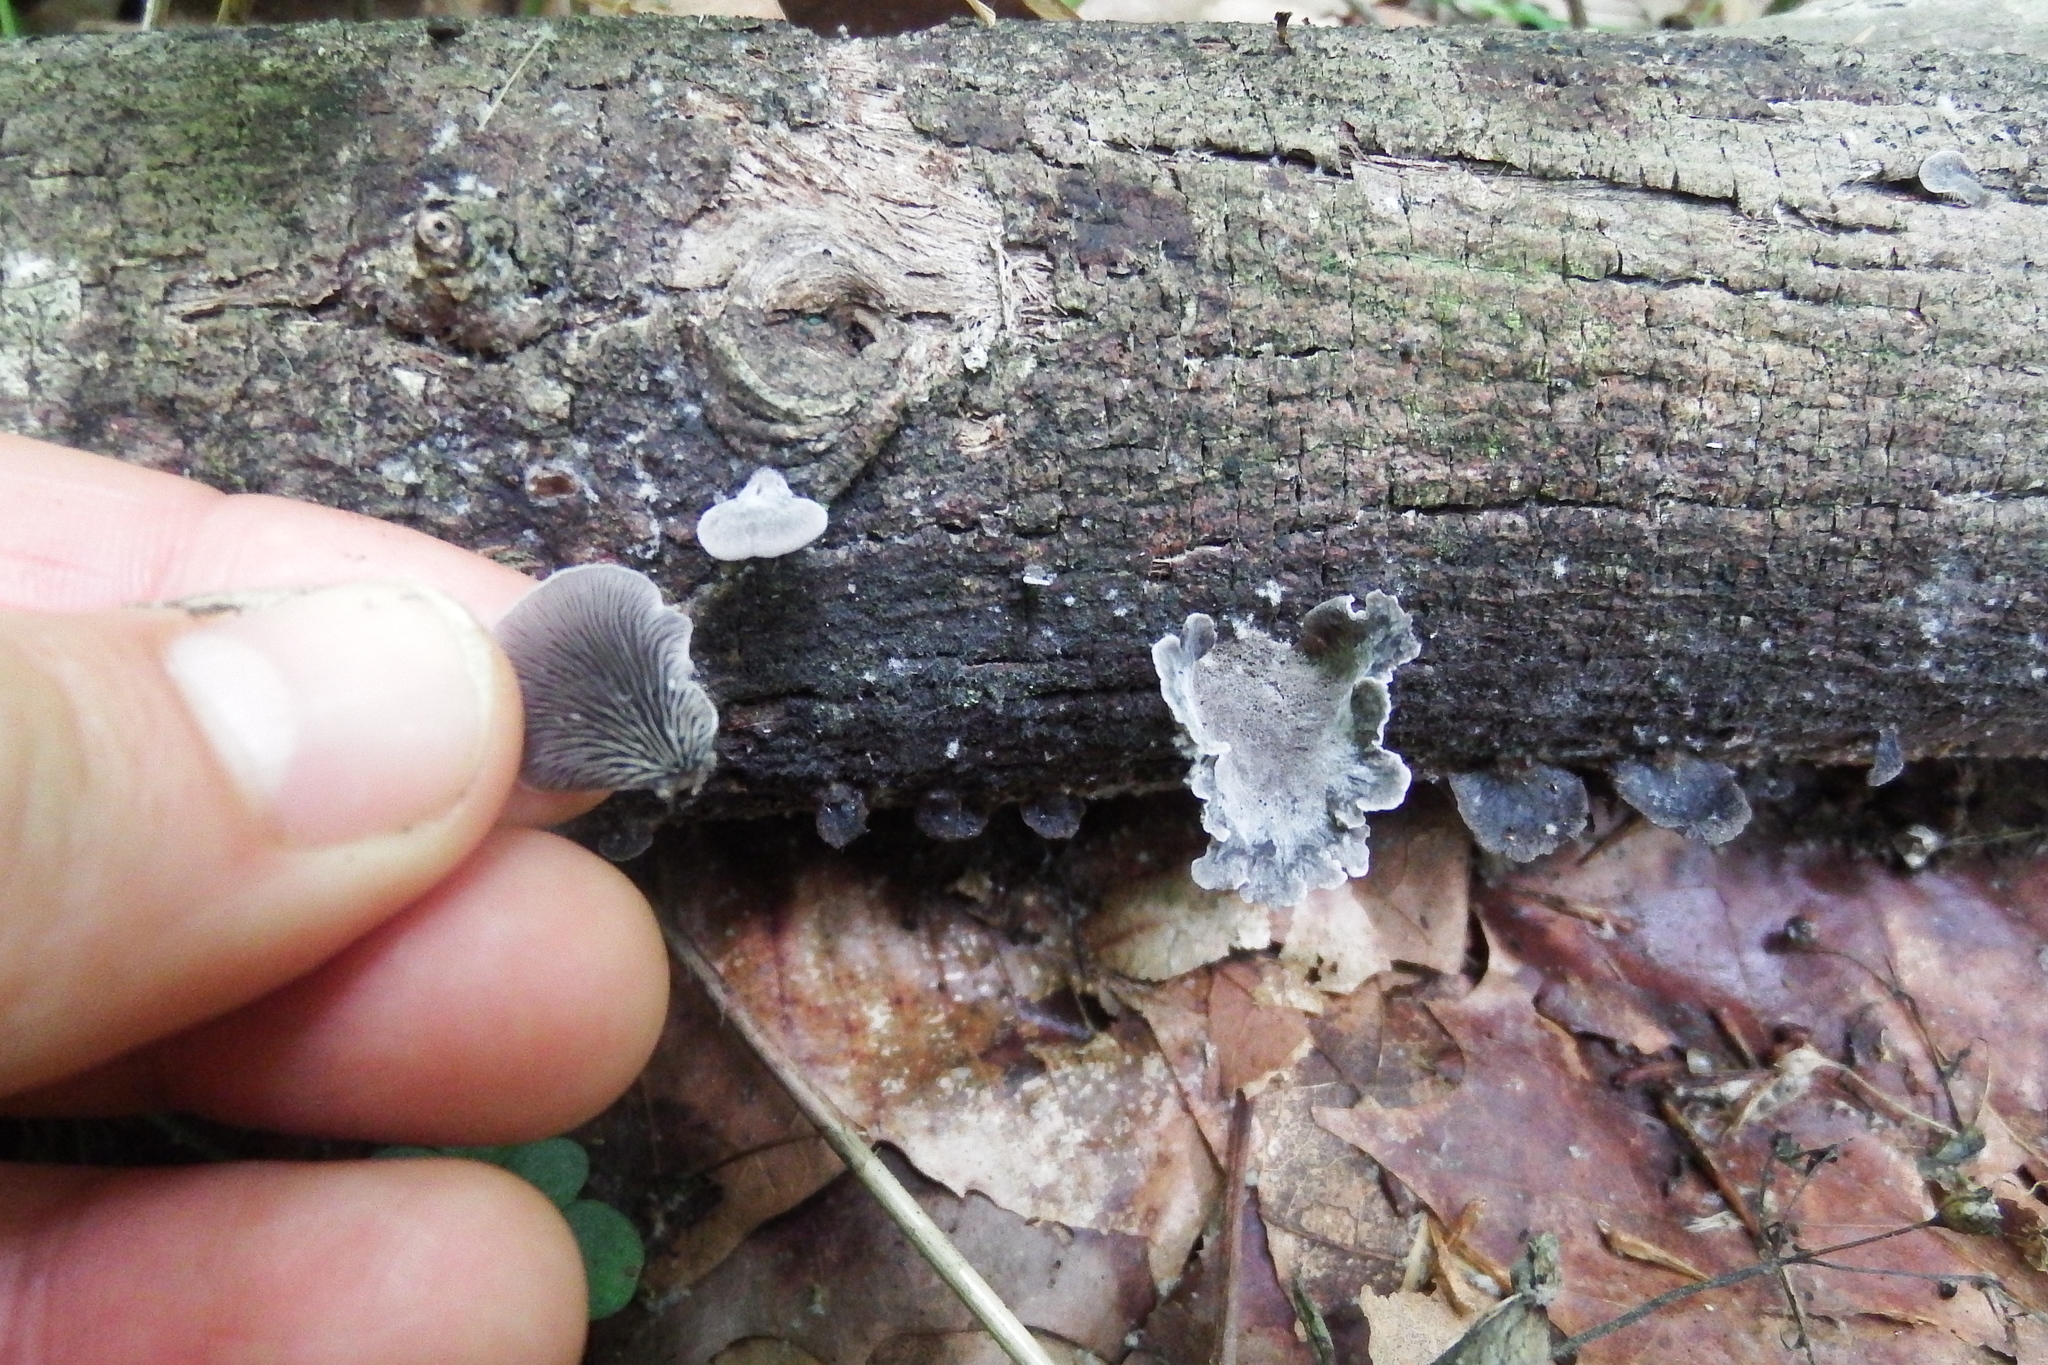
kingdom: Fungi
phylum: Basidiomycota
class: Agaricomycetes
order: Agaricales
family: Pleurotaceae
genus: Resupinatus
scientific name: Resupinatus applicatus
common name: Smoked oysterling
